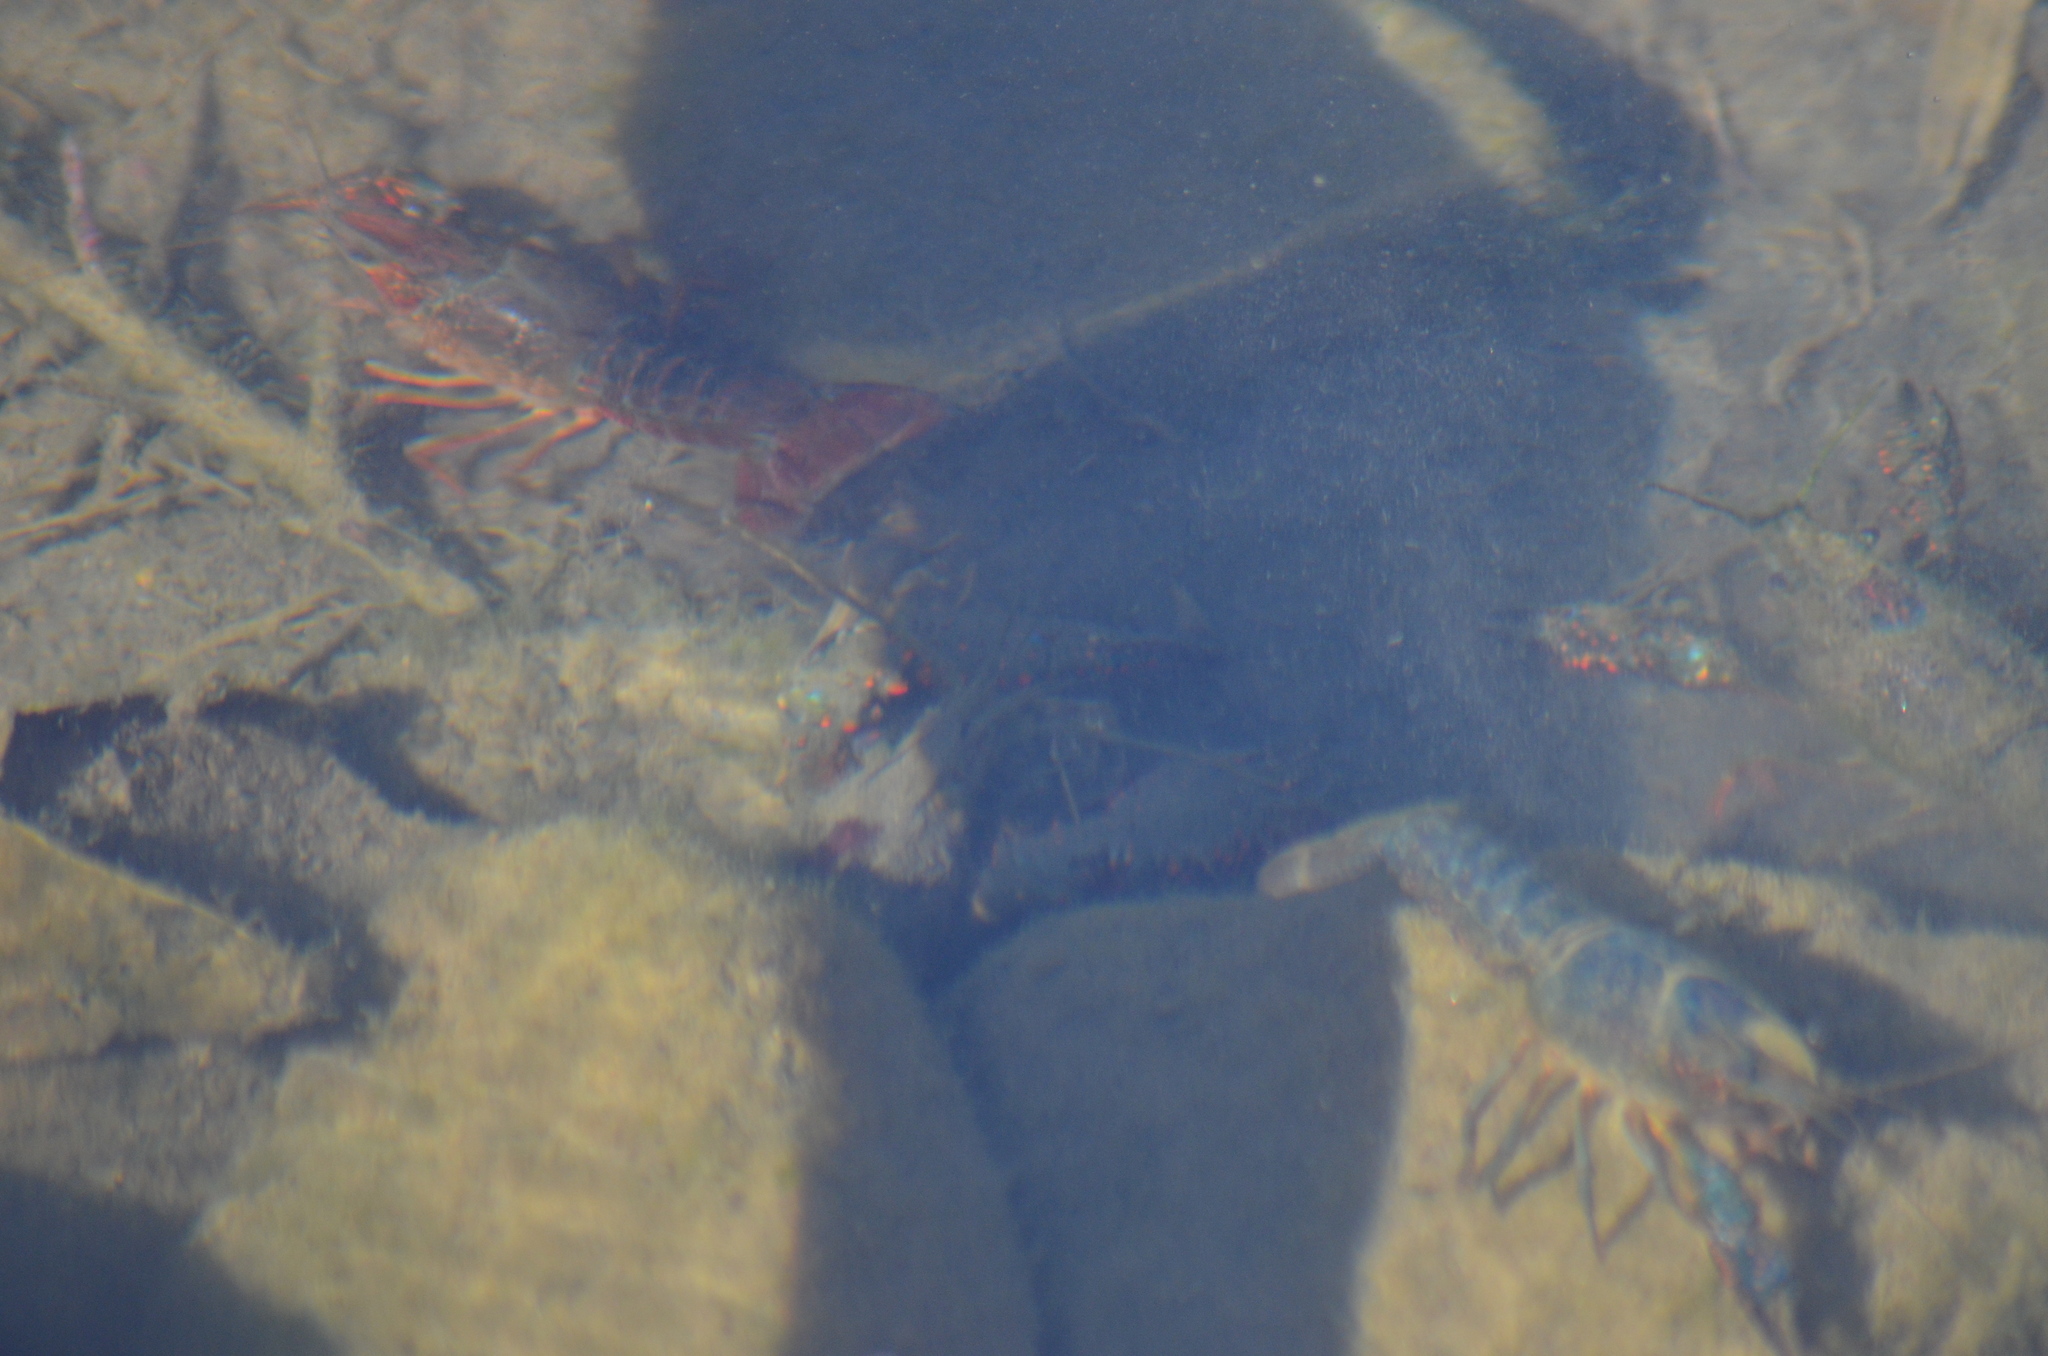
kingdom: Animalia
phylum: Arthropoda
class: Malacostraca
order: Decapoda
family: Cambaridae
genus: Procambarus
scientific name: Procambarus clarkii
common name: Red swamp crayfish
